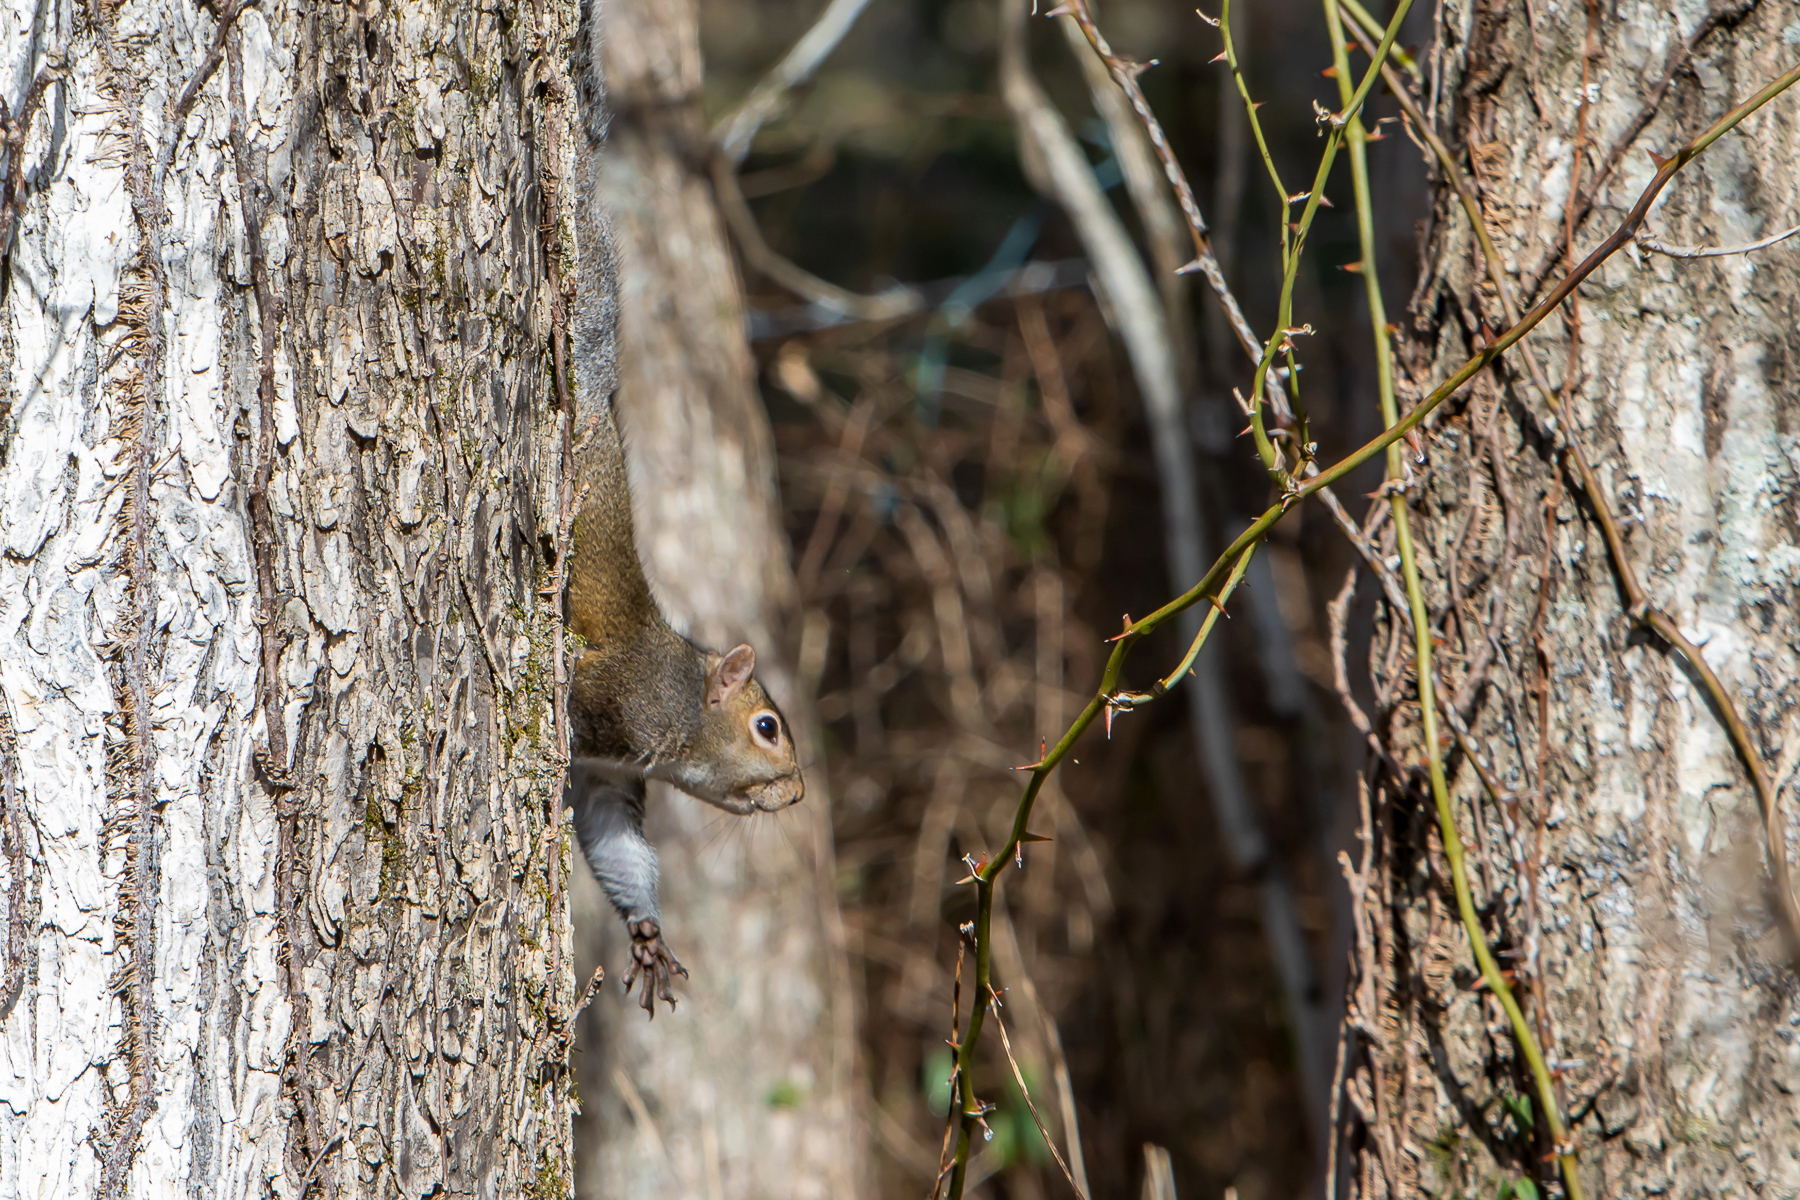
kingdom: Animalia
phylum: Chordata
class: Mammalia
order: Rodentia
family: Sciuridae
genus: Sciurus
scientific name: Sciurus carolinensis
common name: Eastern gray squirrel
